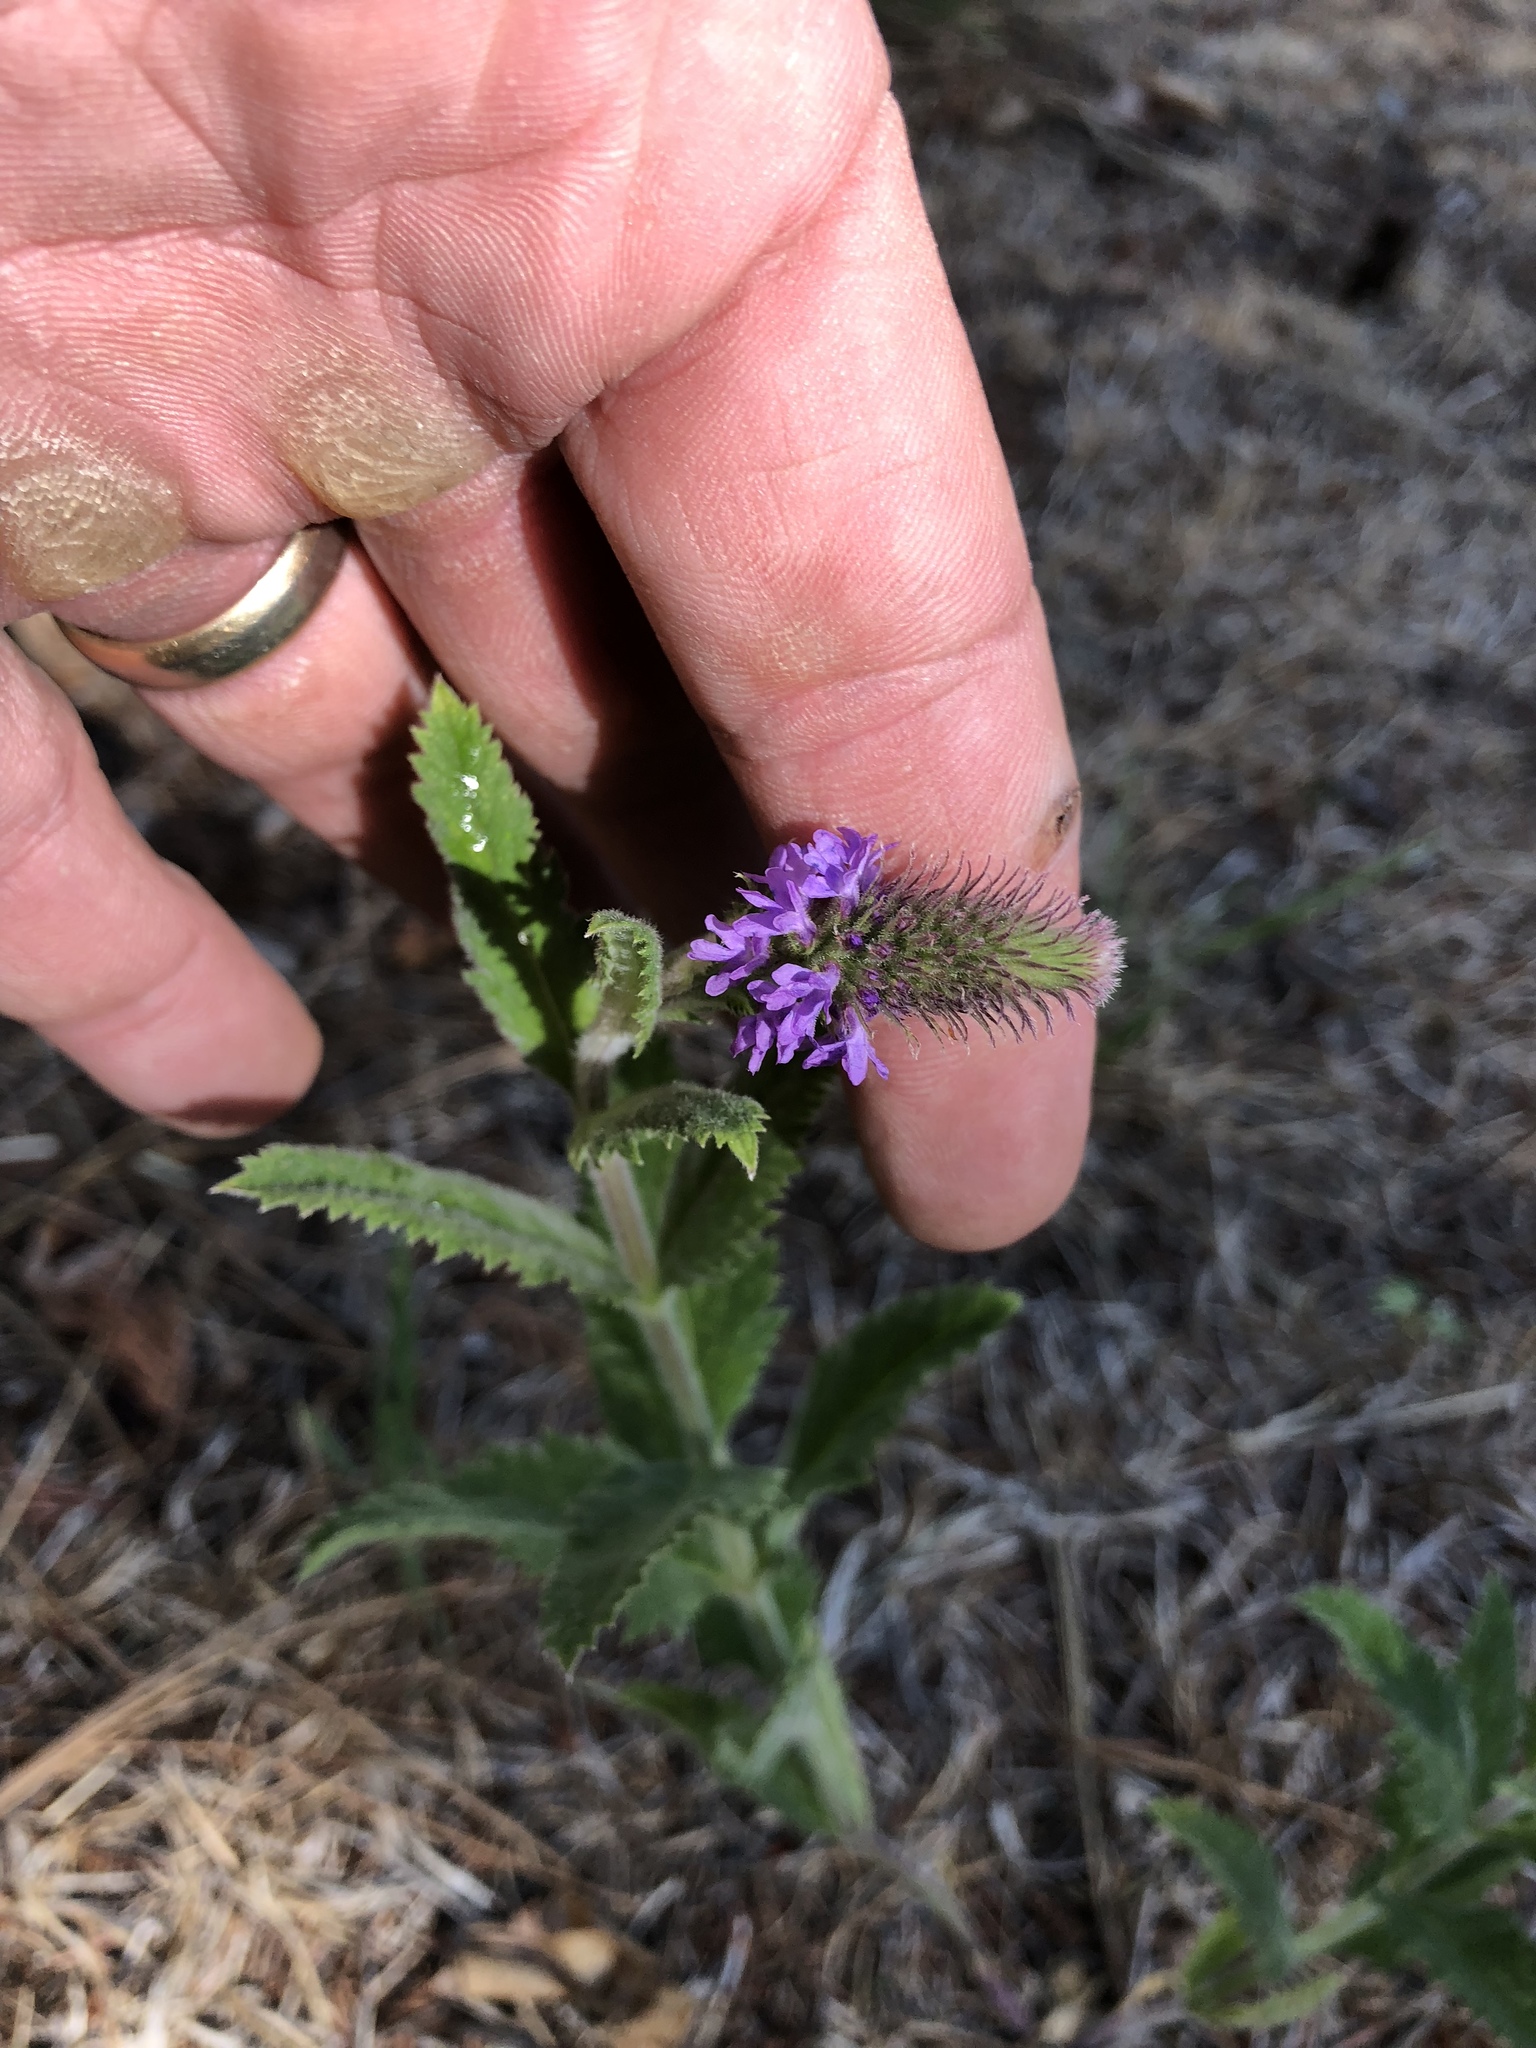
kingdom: Plantae
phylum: Tracheophyta
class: Magnoliopsida
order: Lamiales
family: Verbenaceae
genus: Verbena
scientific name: Verbena macdougalii
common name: New mexico vervain
